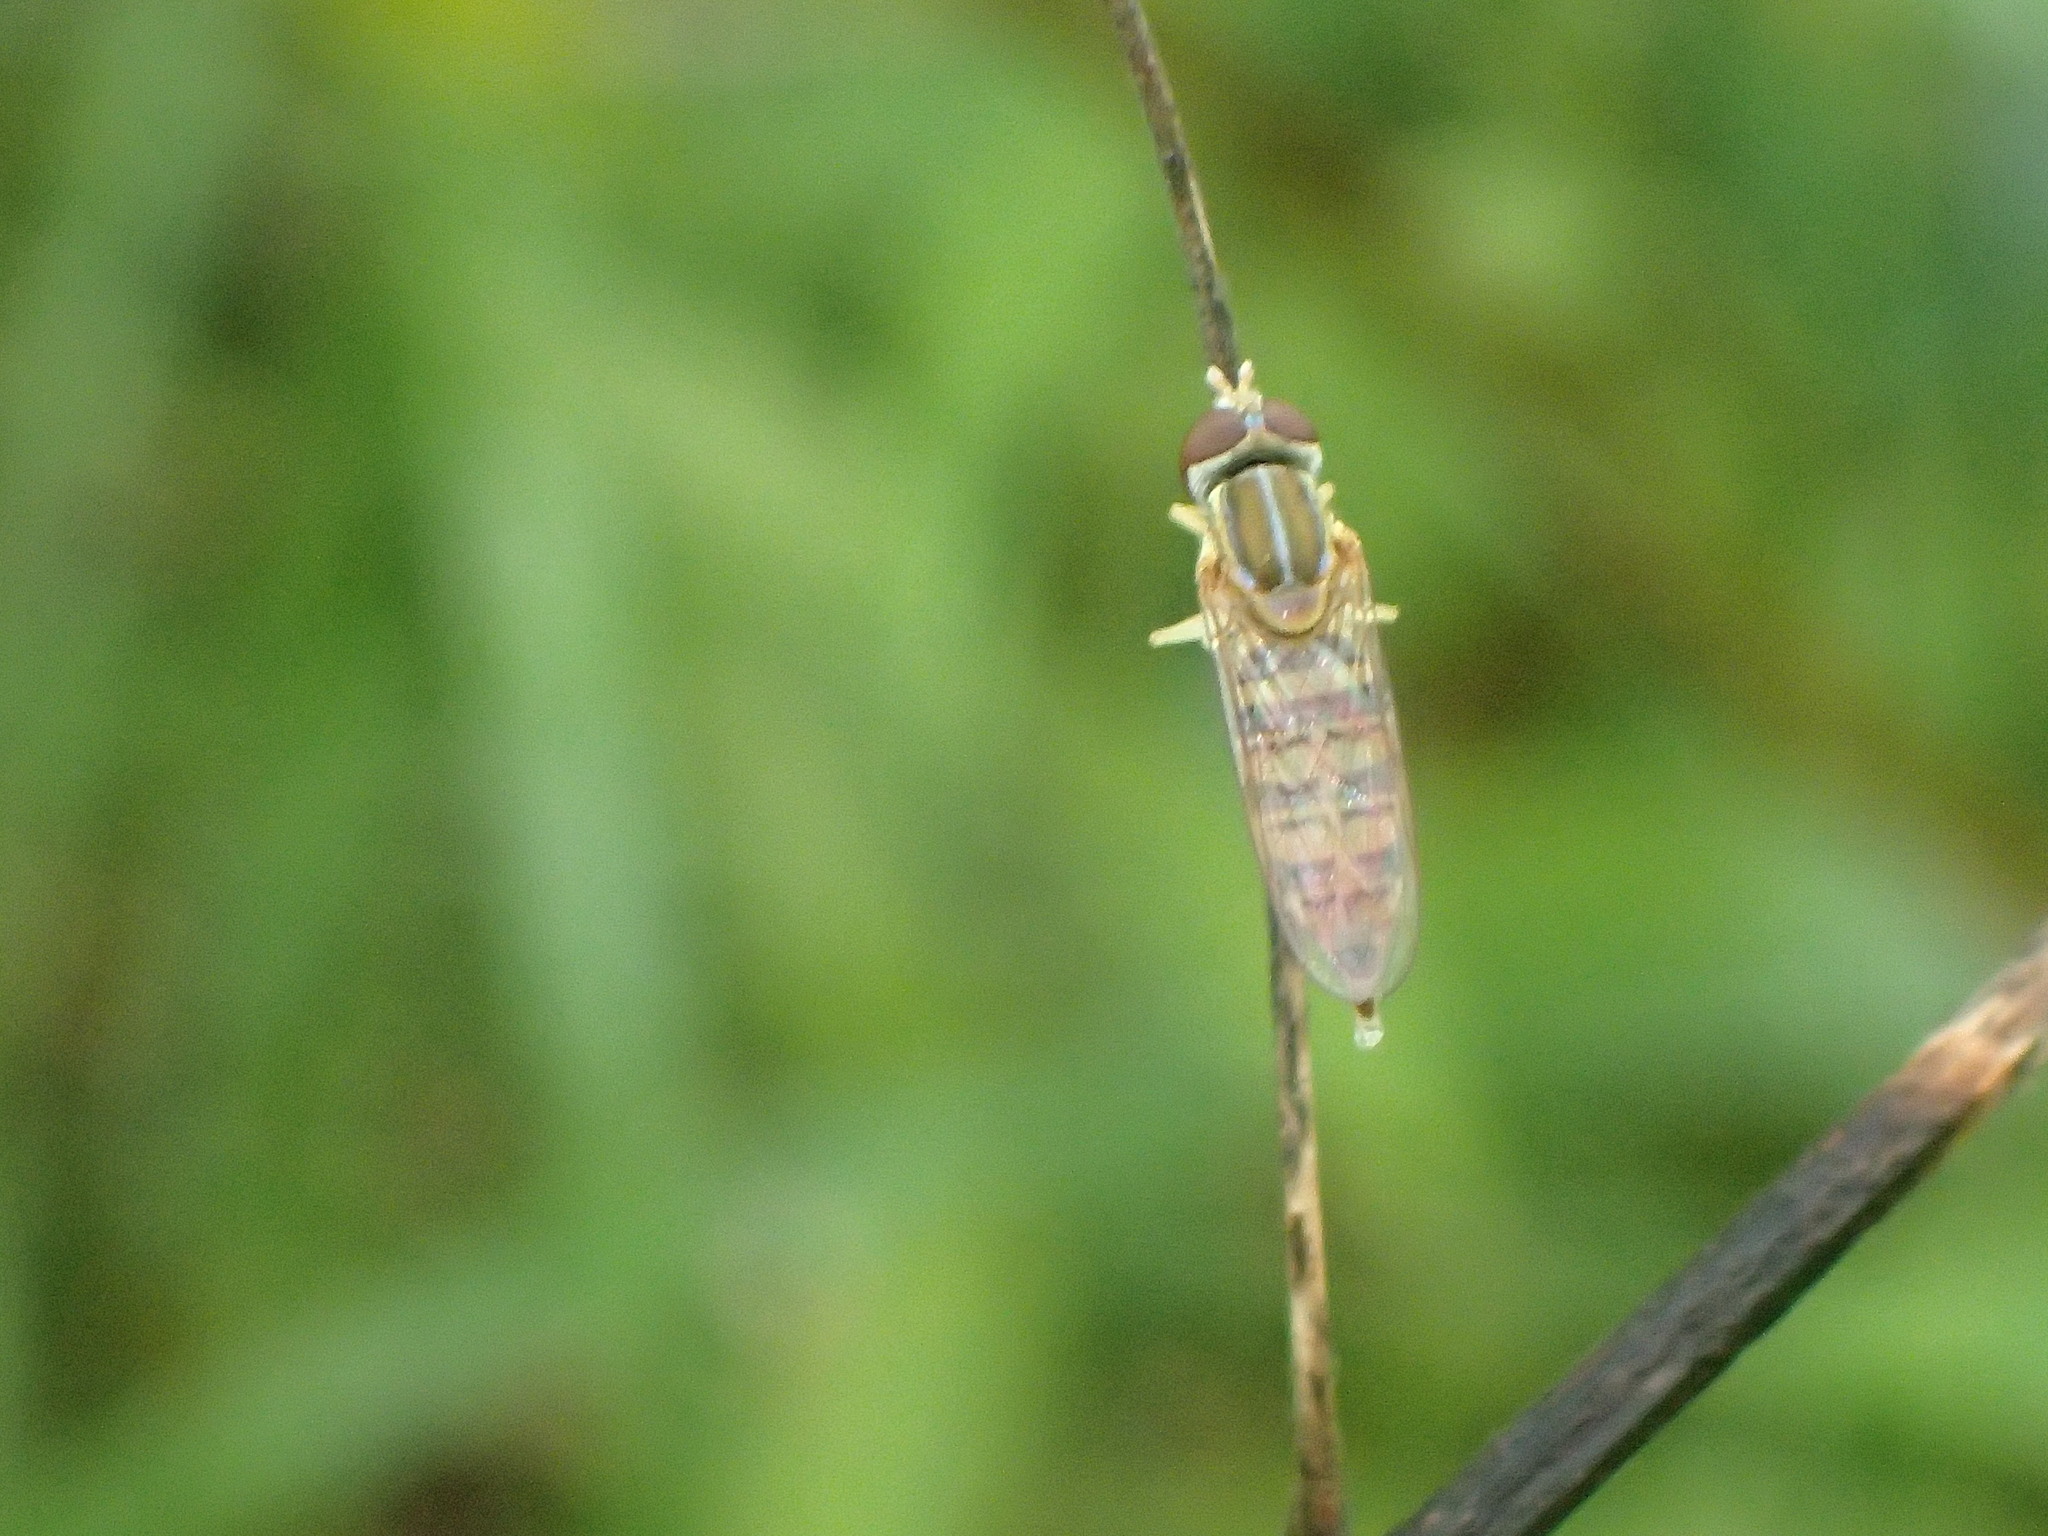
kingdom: Animalia
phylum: Arthropoda
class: Insecta
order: Diptera
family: Syrphidae
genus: Toxomerus
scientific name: Toxomerus politus
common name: Maize calligrapher
